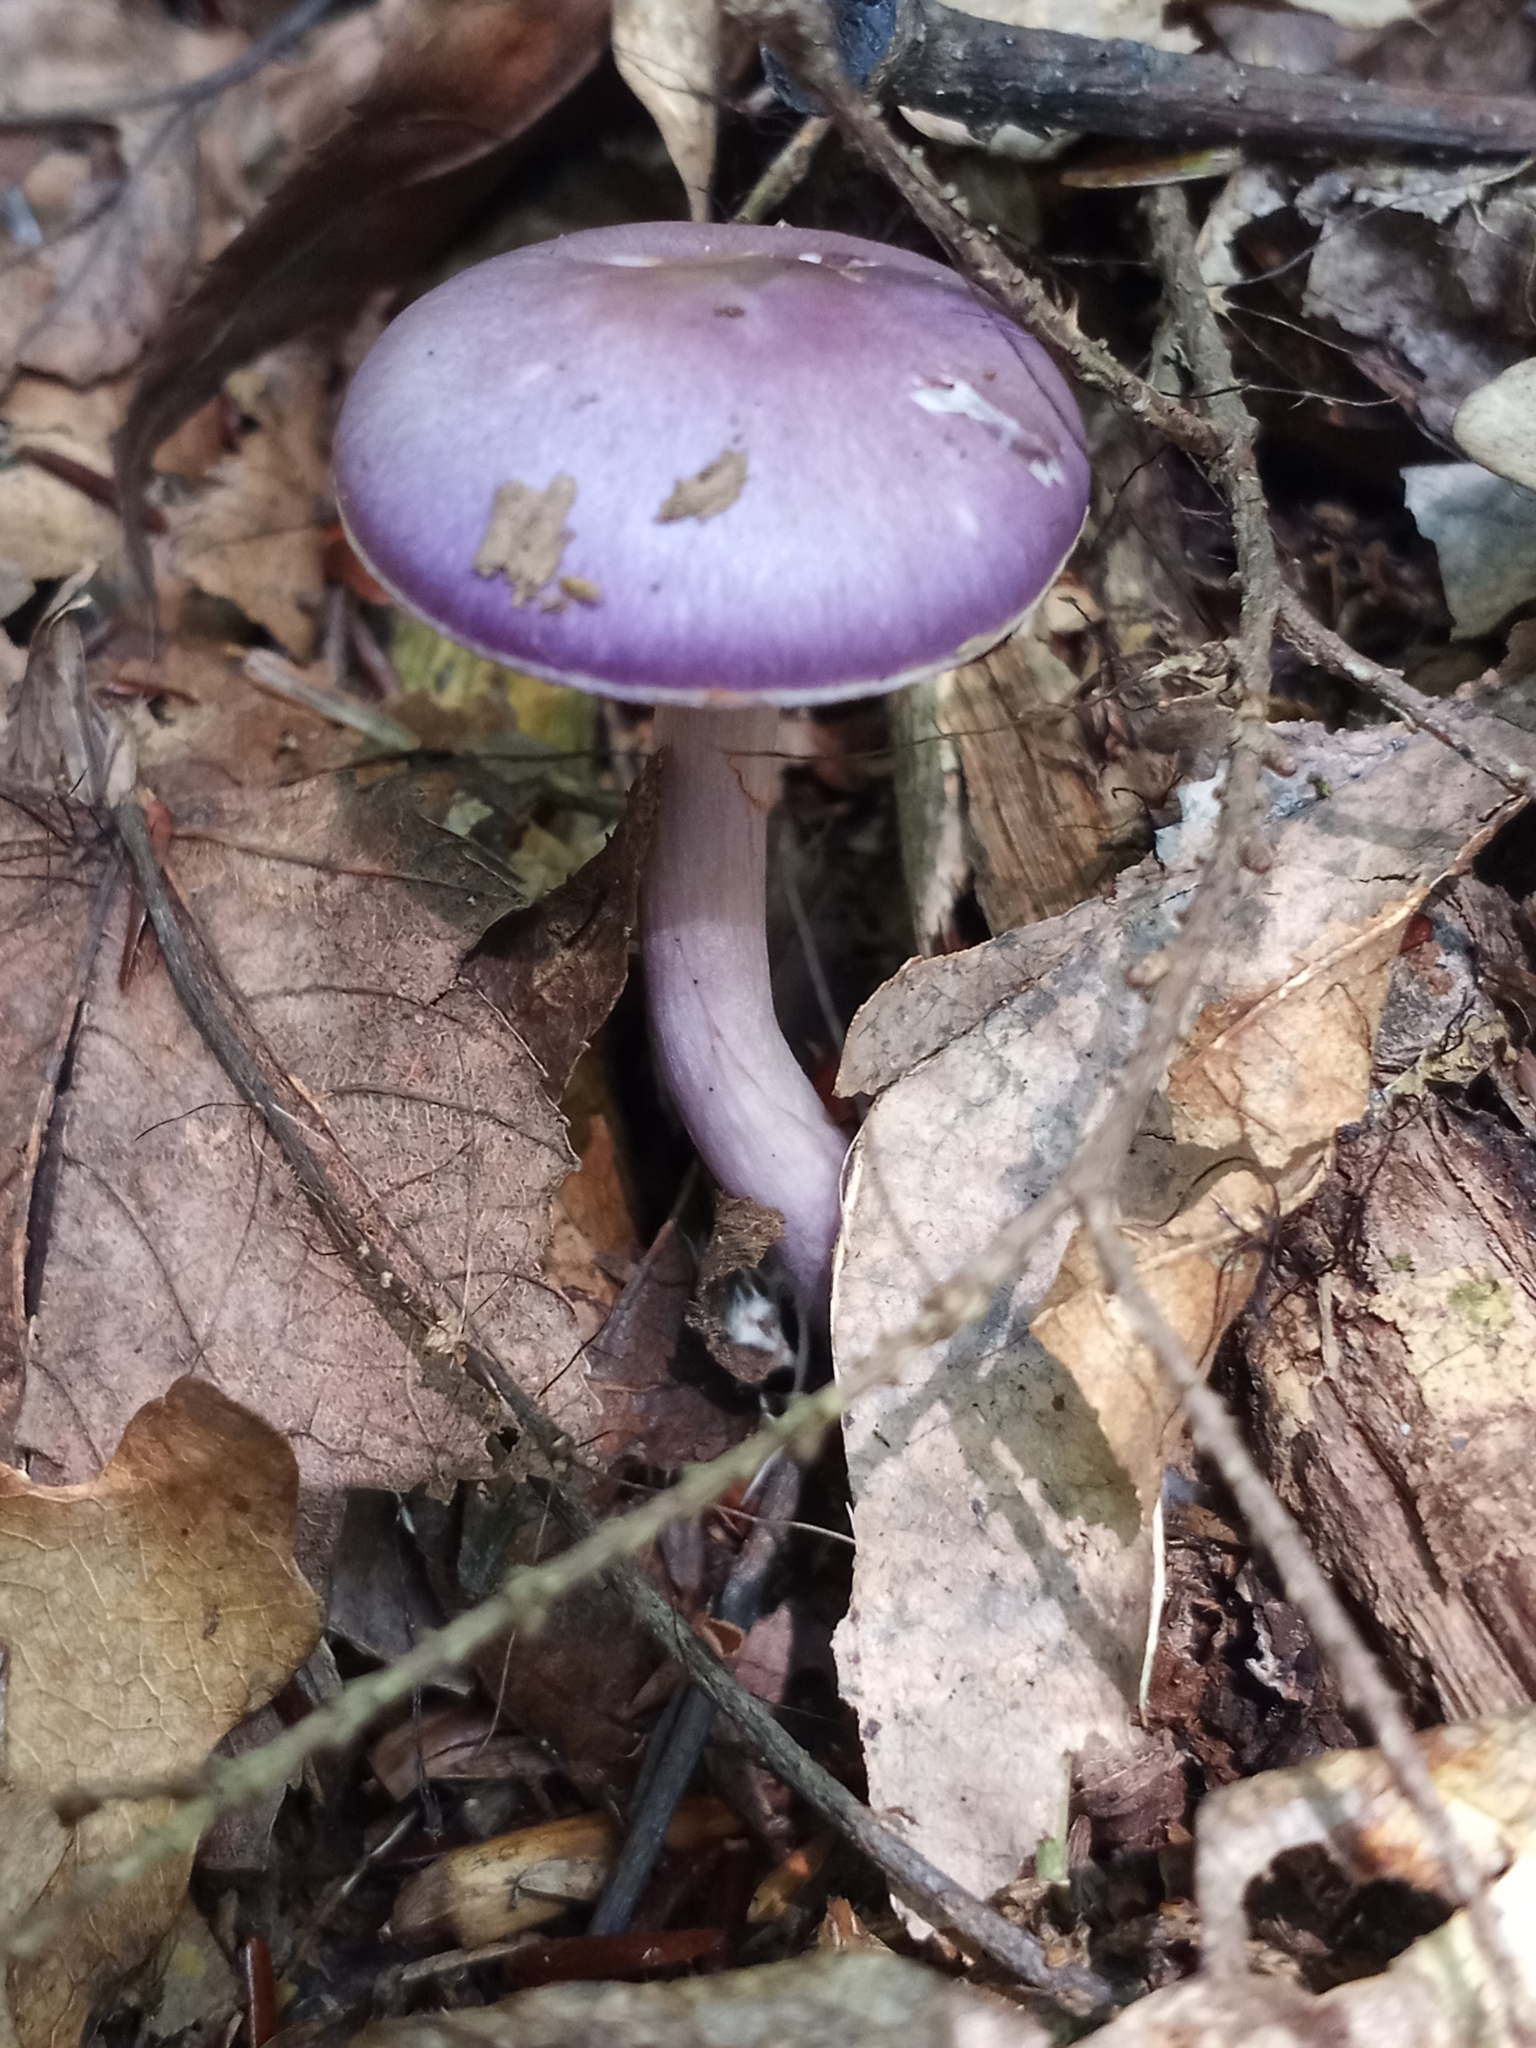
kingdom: Fungi
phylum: Basidiomycota
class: Agaricomycetes
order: Agaricales
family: Cortinariaceae
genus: Cortinarius
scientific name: Cortinarius iodes
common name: Viscid violet cort
